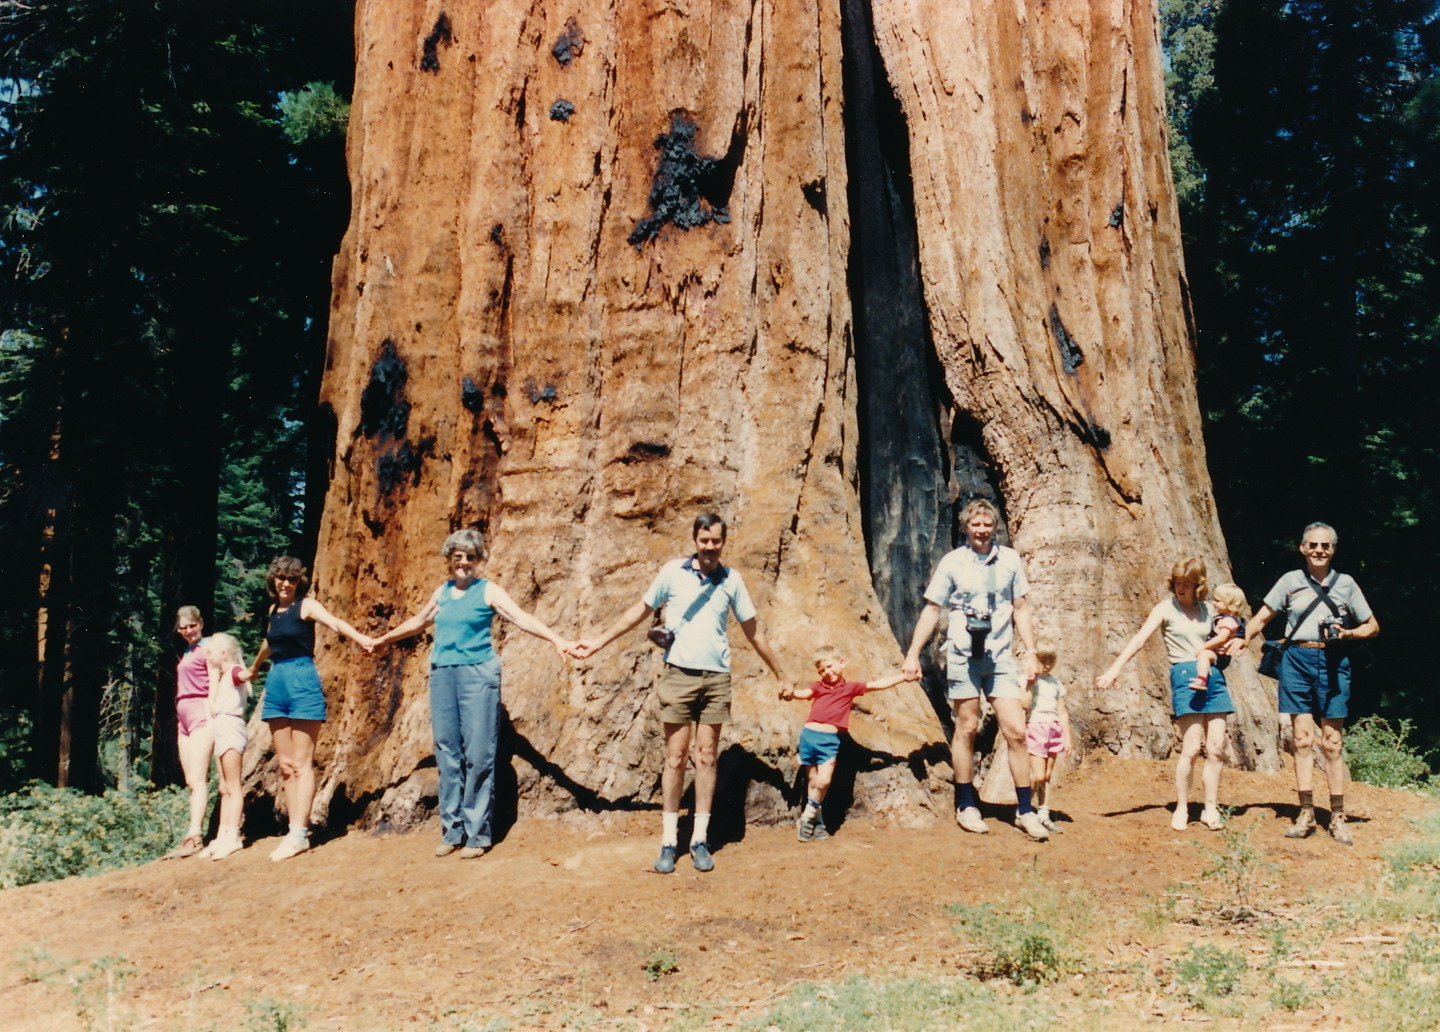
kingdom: Plantae
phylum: Tracheophyta
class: Pinopsida
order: Pinales
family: Cupressaceae
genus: Sequoiadendron
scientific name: Sequoiadendron giganteum
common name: Wellingtonia
